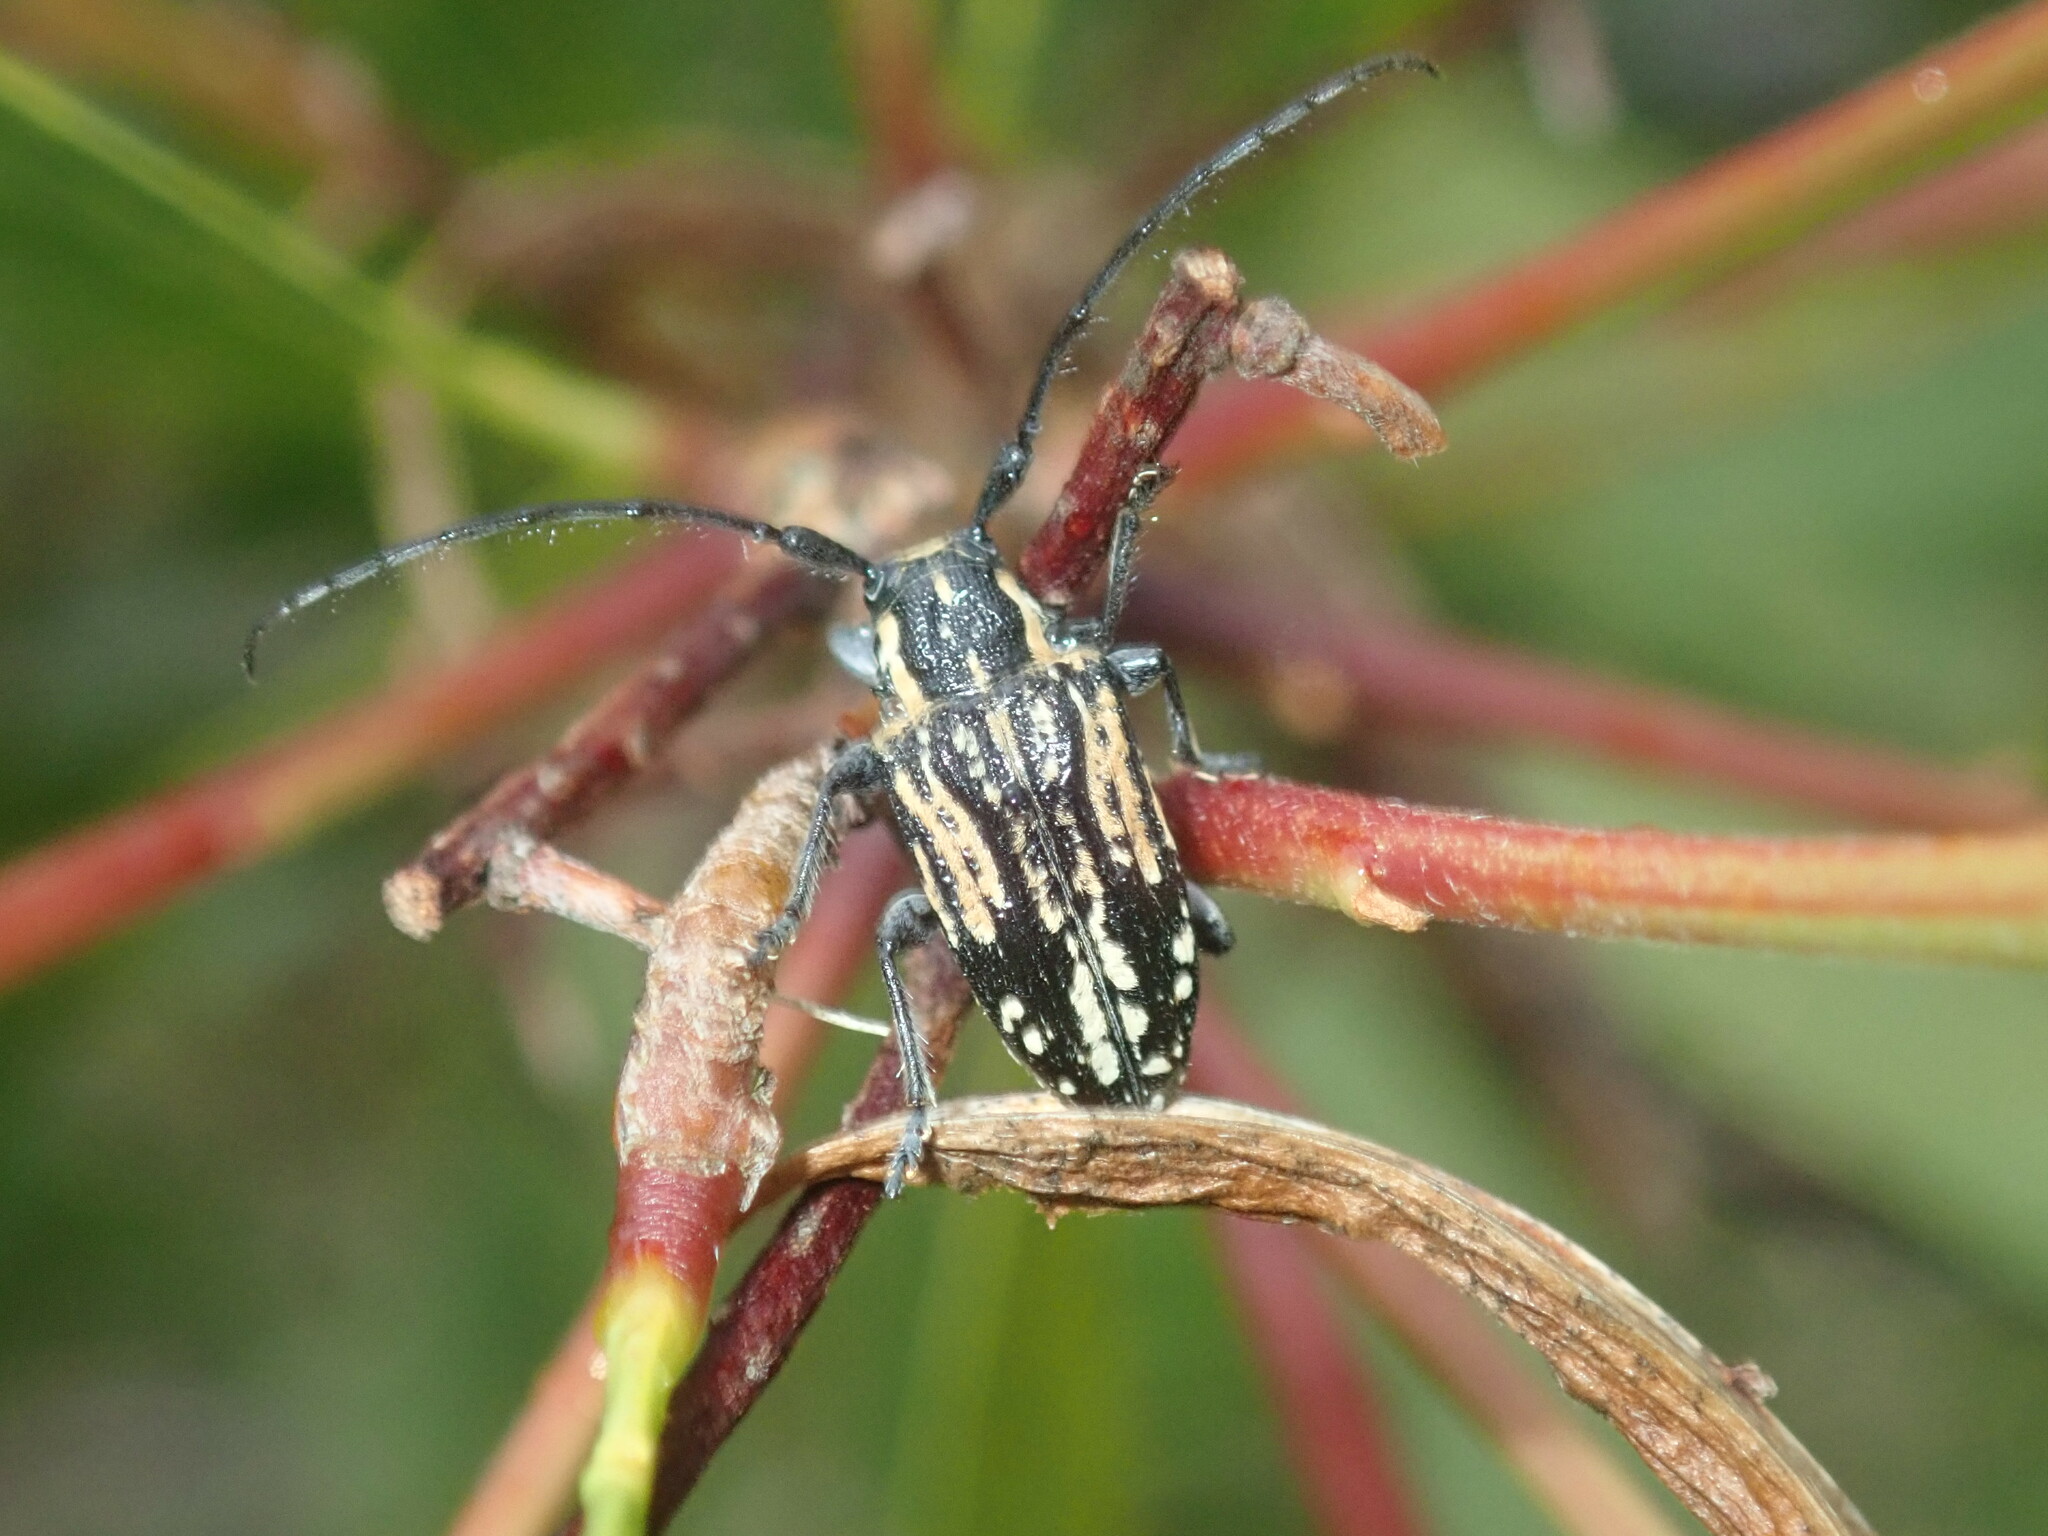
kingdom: Animalia
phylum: Arthropoda
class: Insecta
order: Coleoptera
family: Cerambycidae
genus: Hebecerus
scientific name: Hebecerus crocogaster
